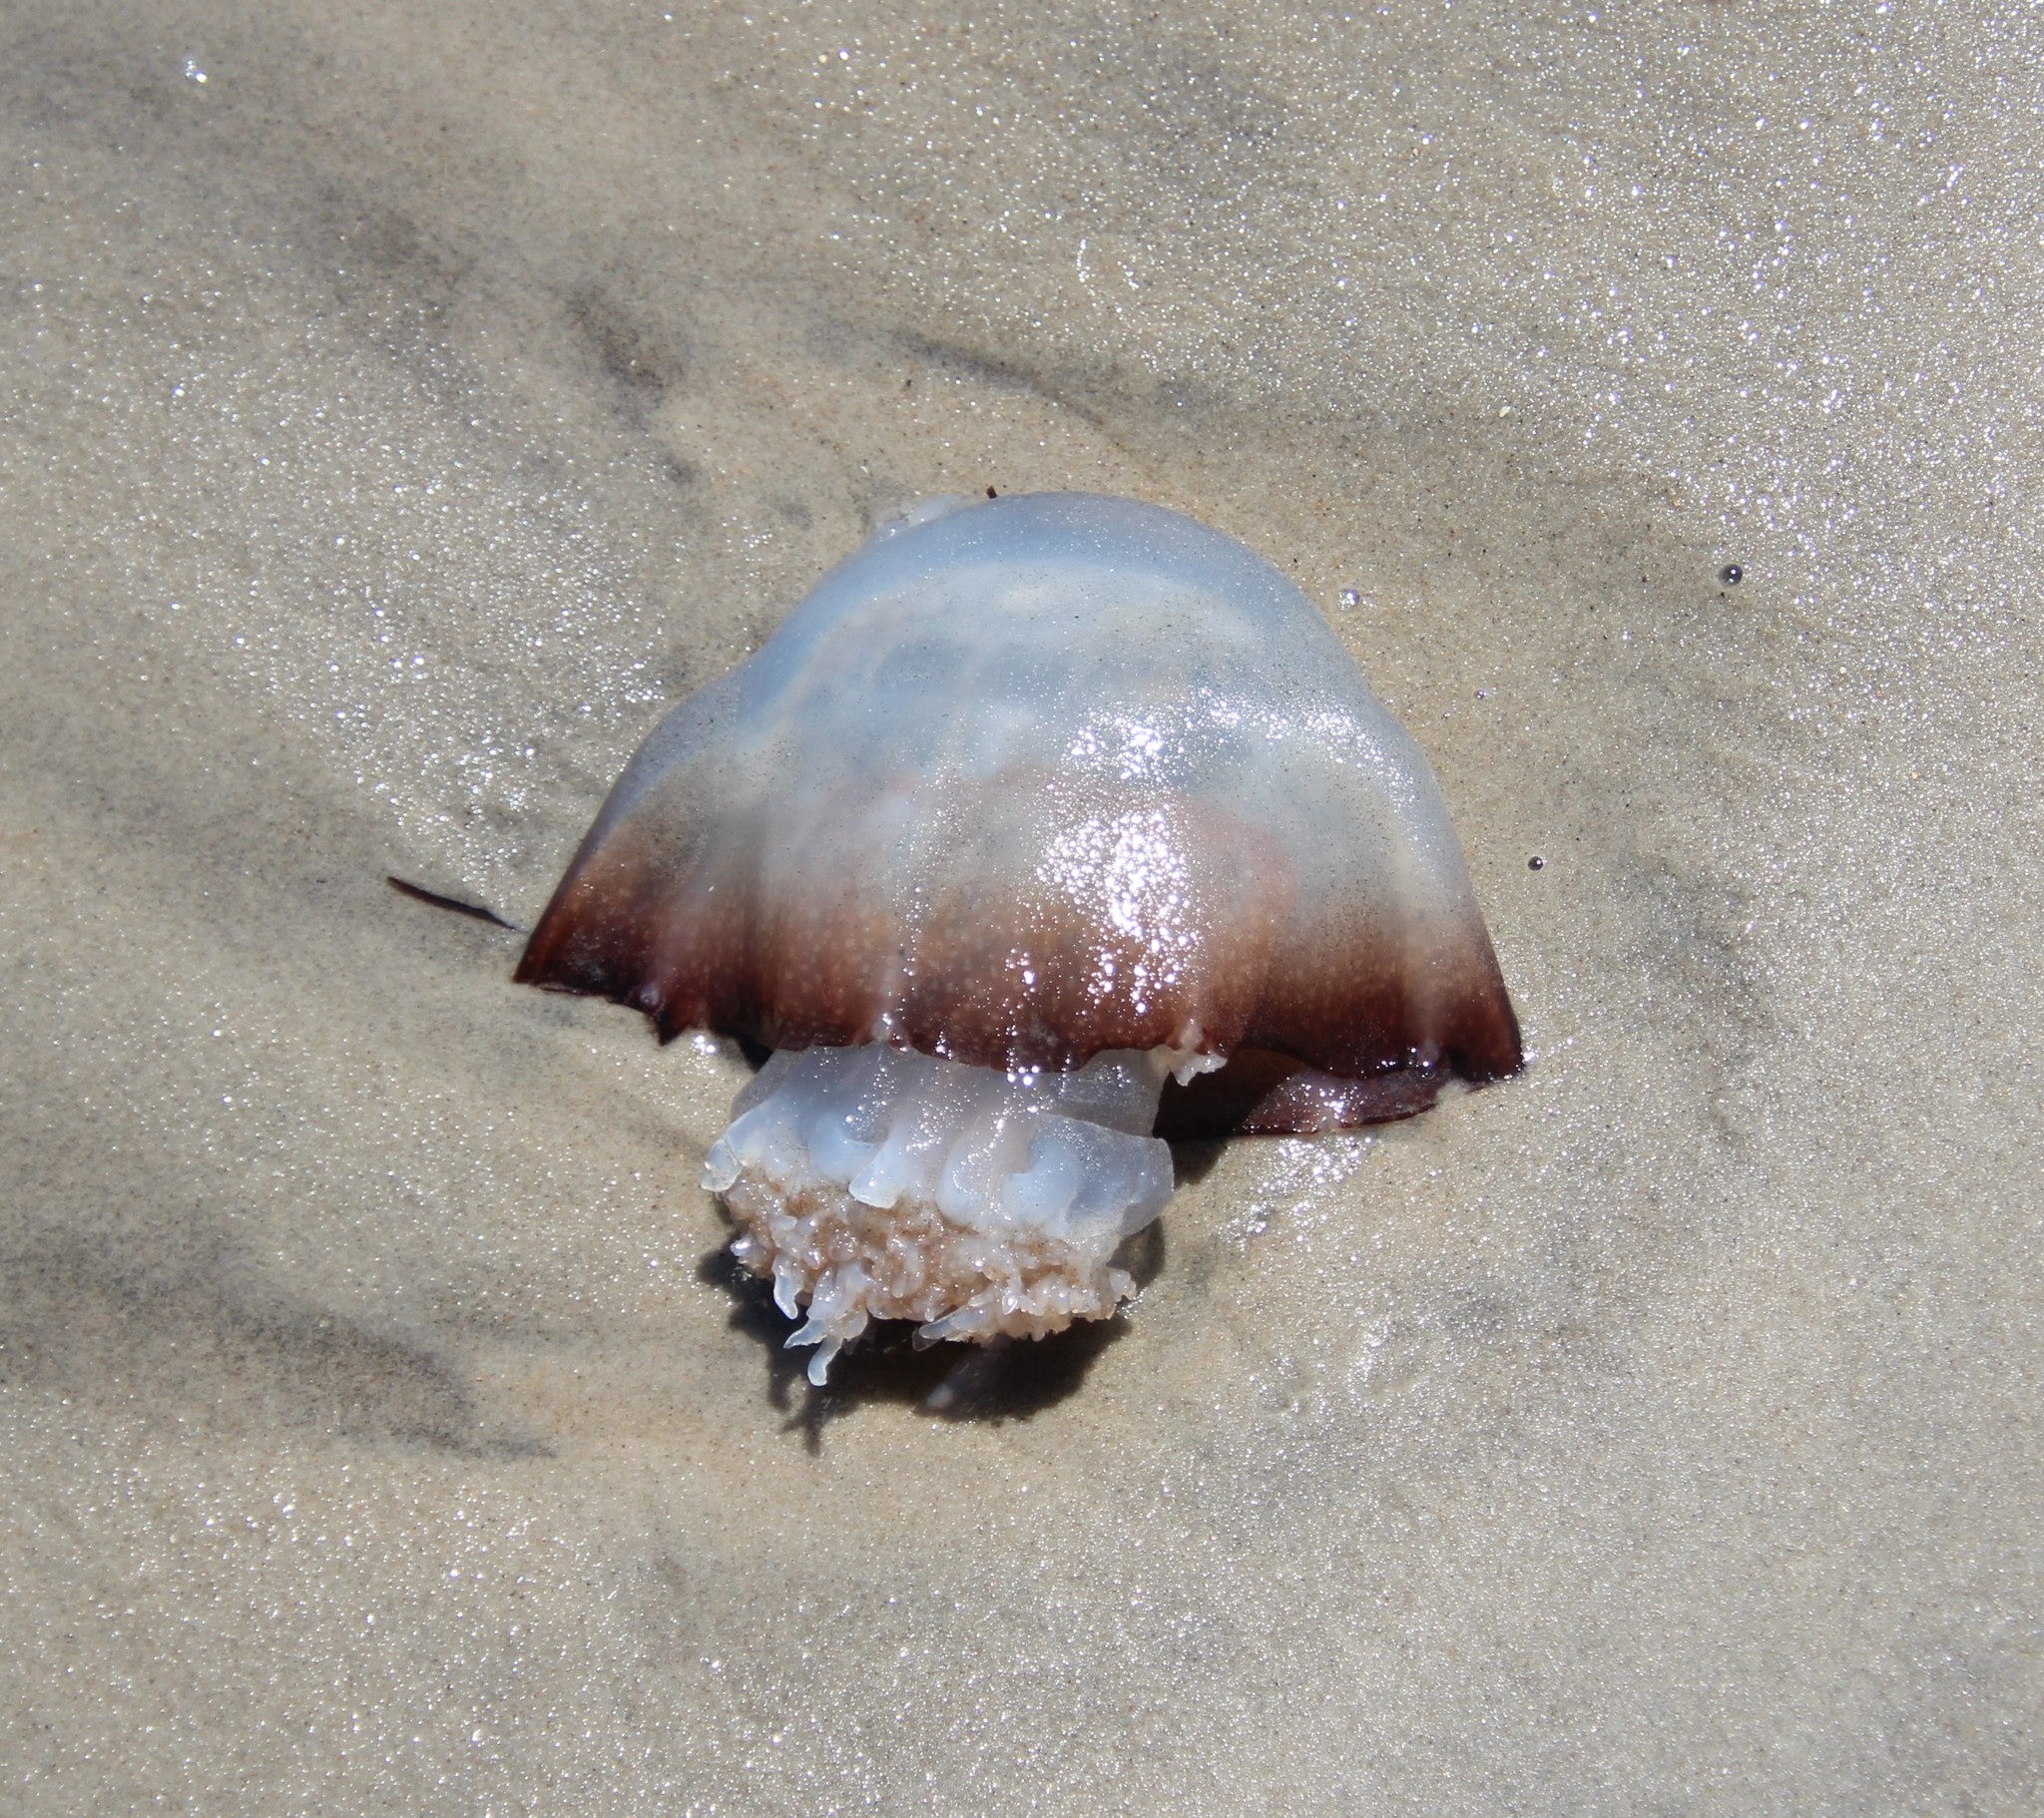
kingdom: Animalia
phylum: Cnidaria
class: Scyphozoa
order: Rhizostomeae
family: Stomolophidae
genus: Stomolophus
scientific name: Stomolophus meleagris
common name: Cabbagehead
